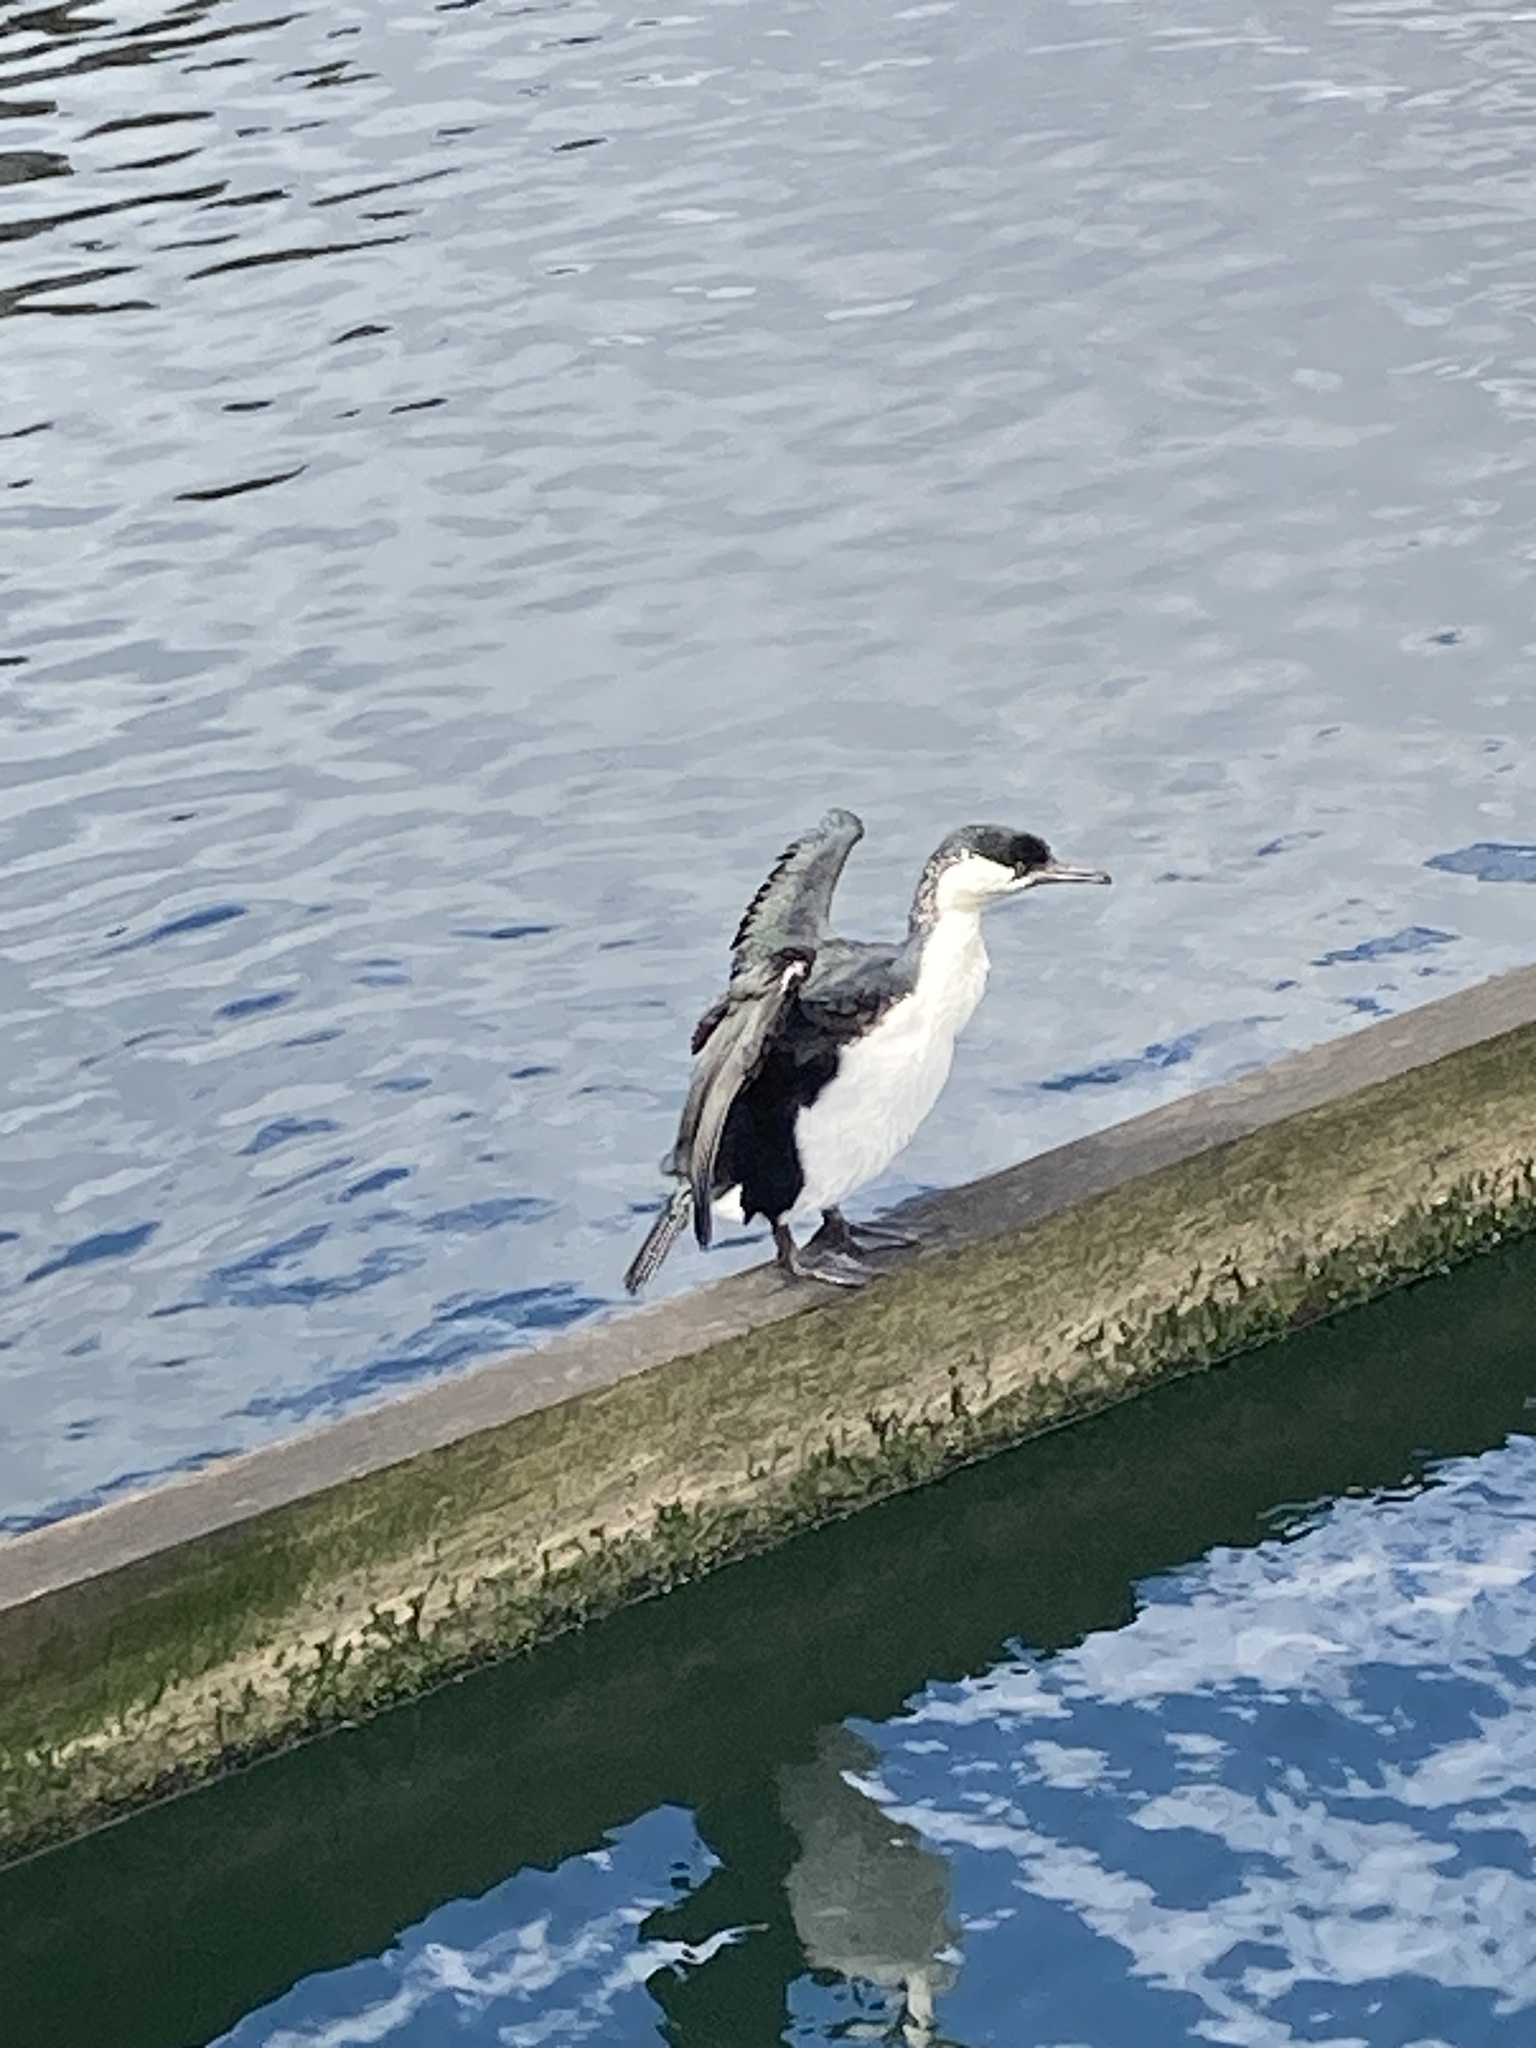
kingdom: Animalia
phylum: Chordata
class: Aves
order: Suliformes
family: Phalacrocoracidae
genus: Phalacrocorax
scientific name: Phalacrocorax fuscescens
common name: Black-faced cormorant
